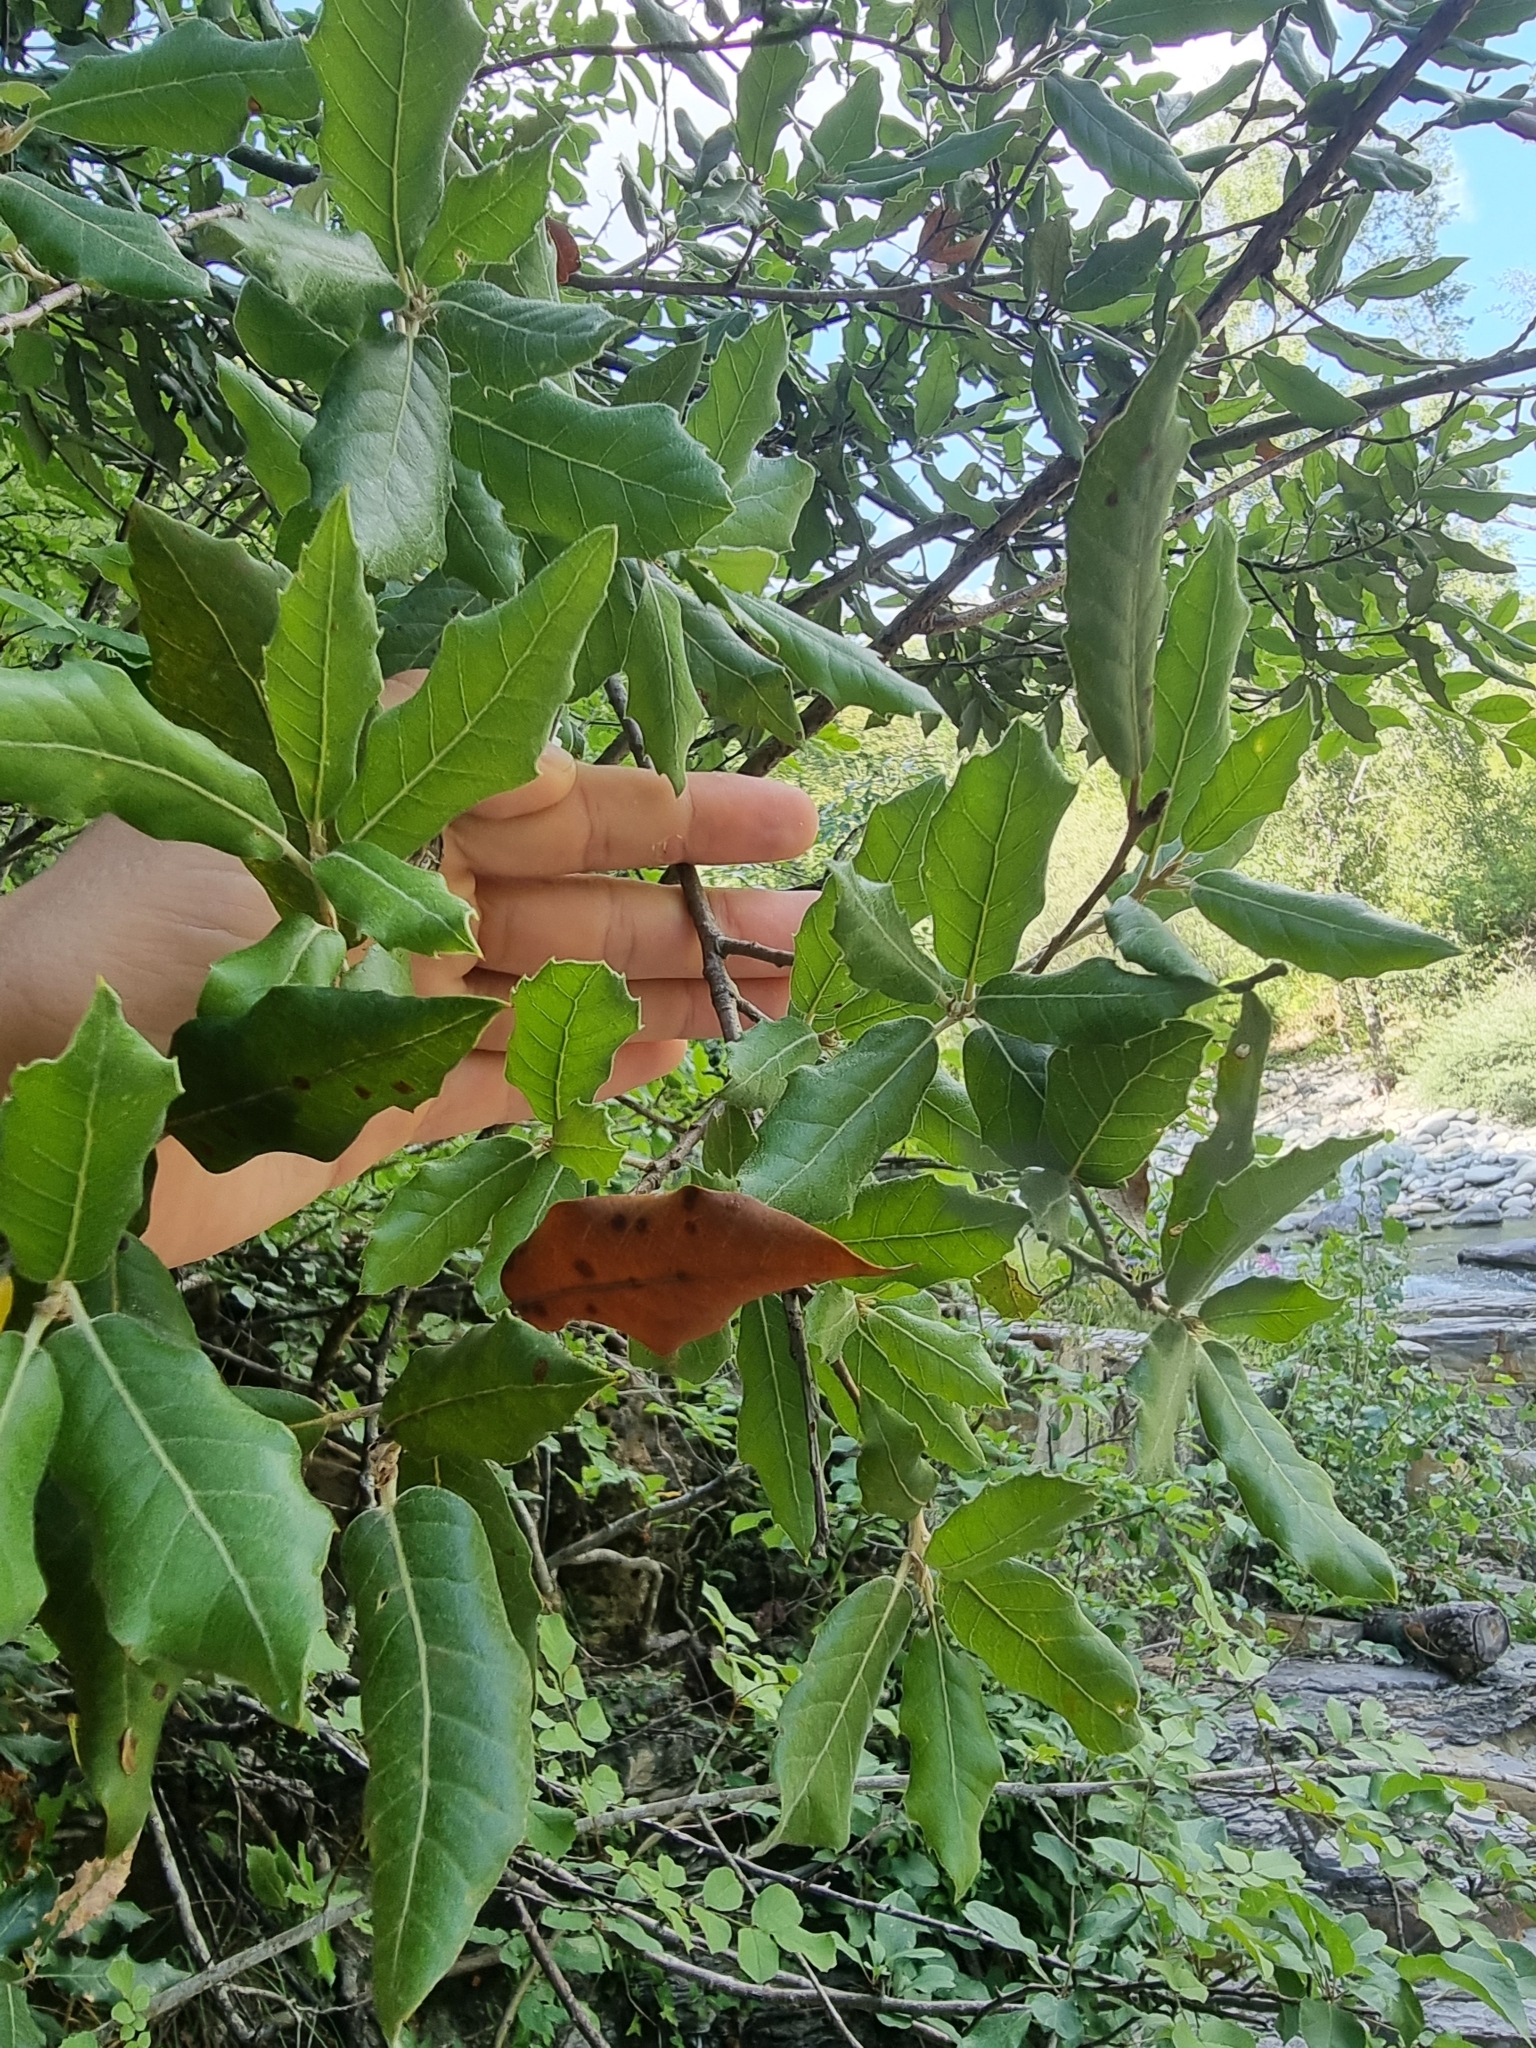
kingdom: Plantae
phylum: Tracheophyta
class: Magnoliopsida
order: Fagales
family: Fagaceae
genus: Quercus
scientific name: Quercus ilex
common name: Evergreen oak
